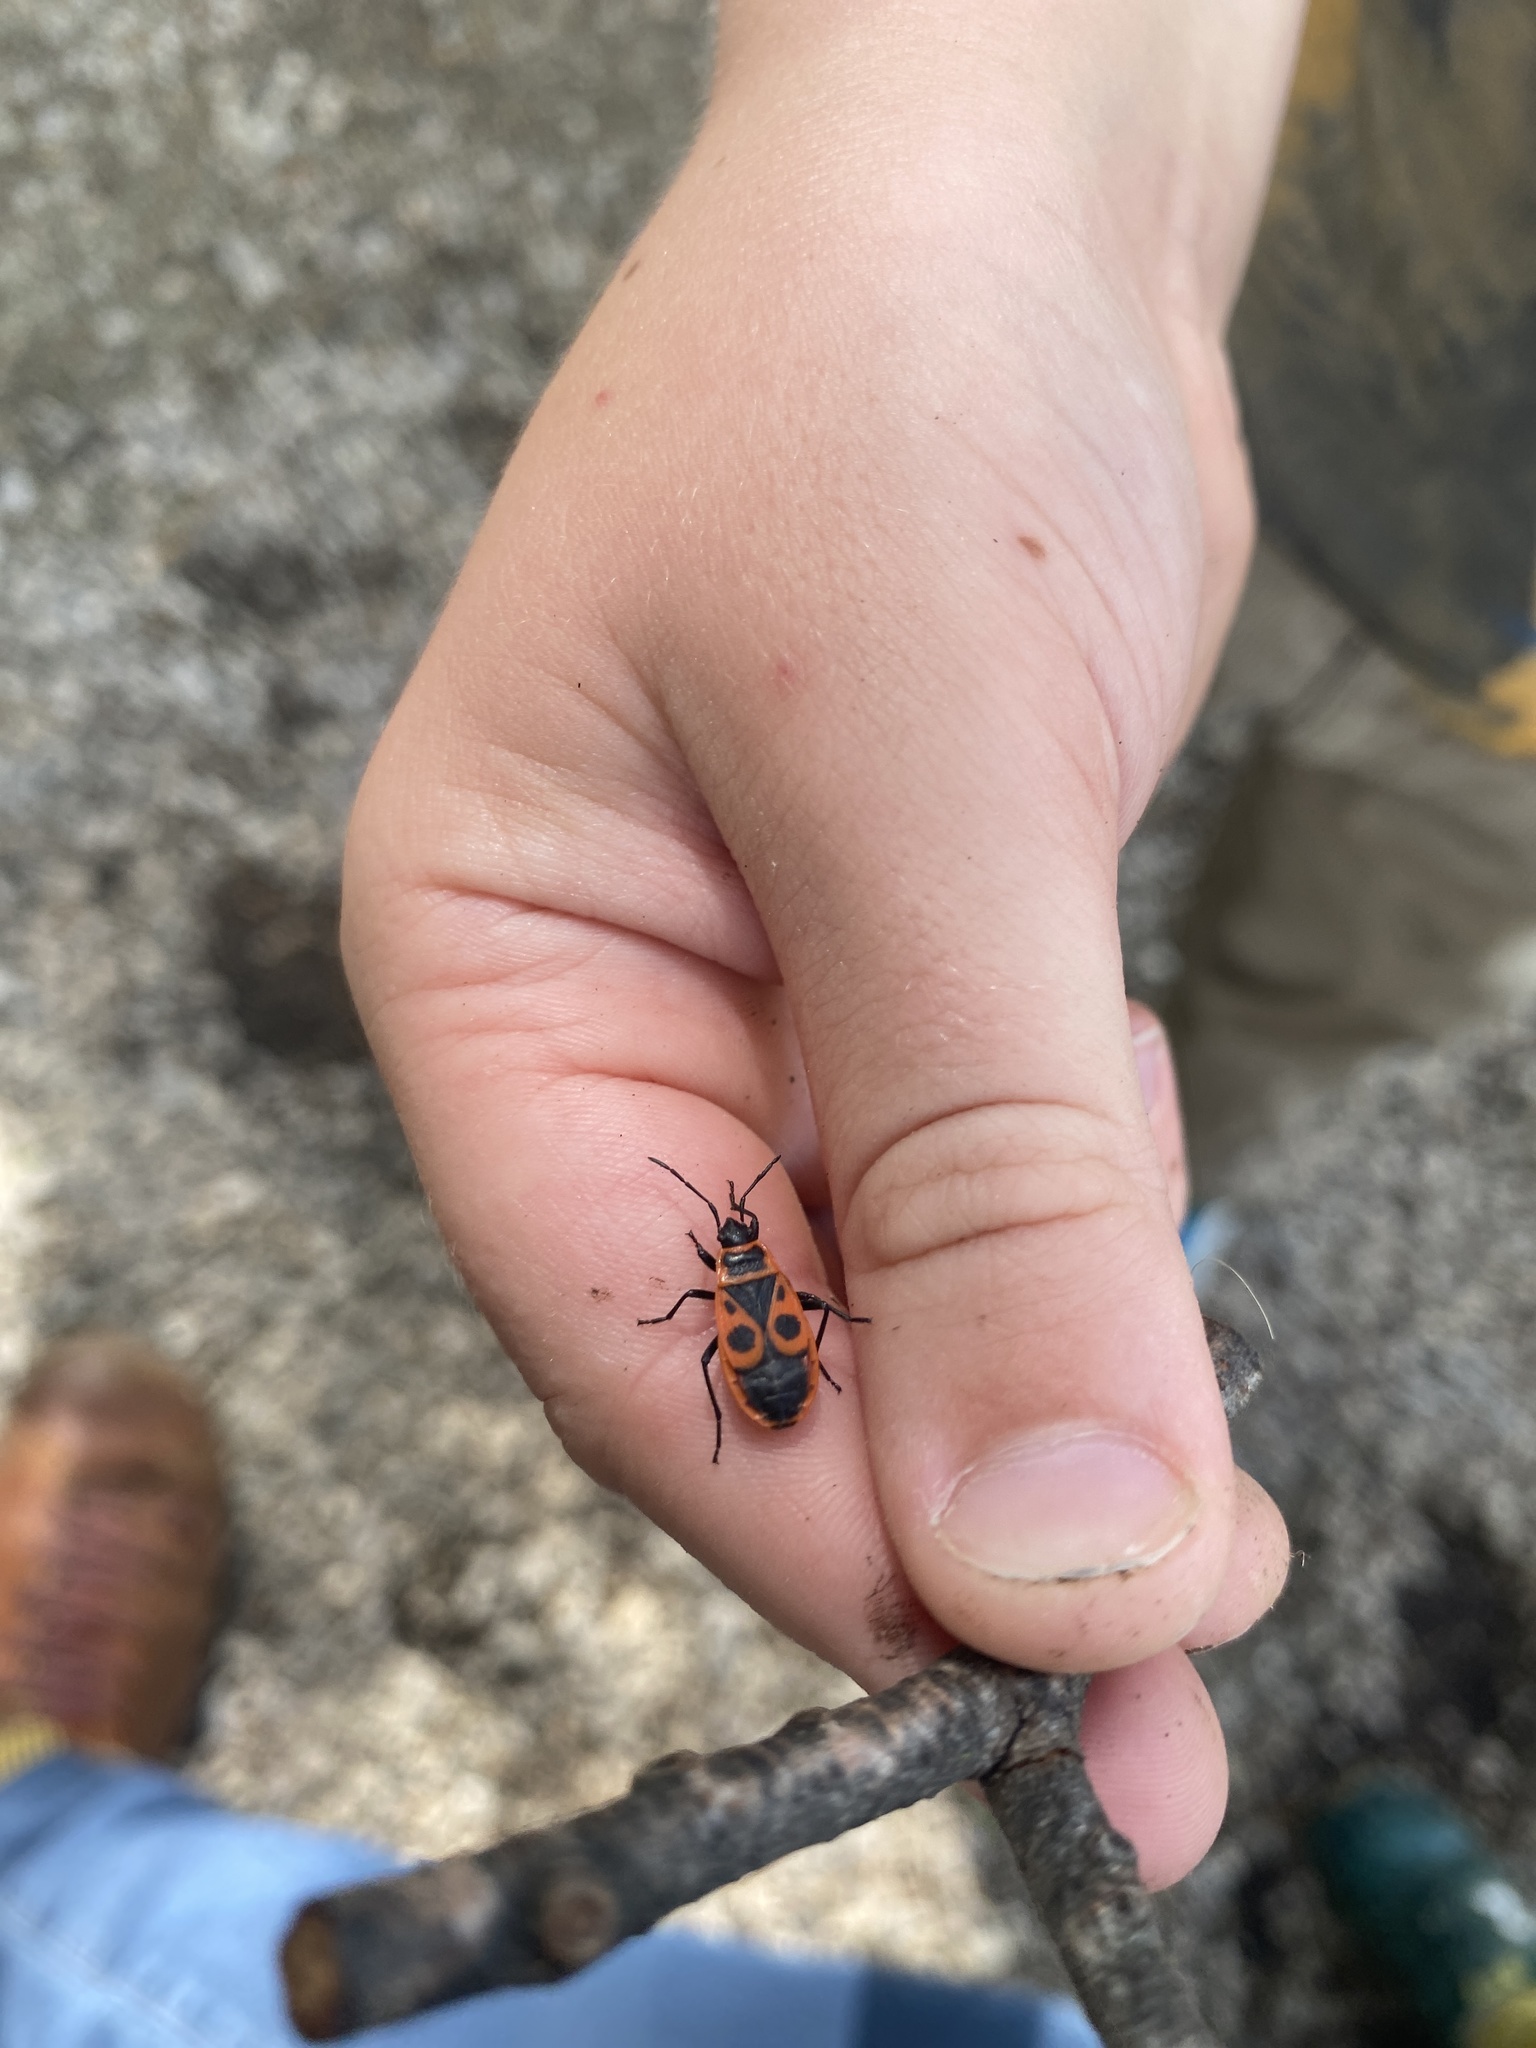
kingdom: Animalia
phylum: Arthropoda
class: Insecta
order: Hemiptera
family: Pyrrhocoridae
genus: Pyrrhocoris
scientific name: Pyrrhocoris apterus
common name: Firebug
